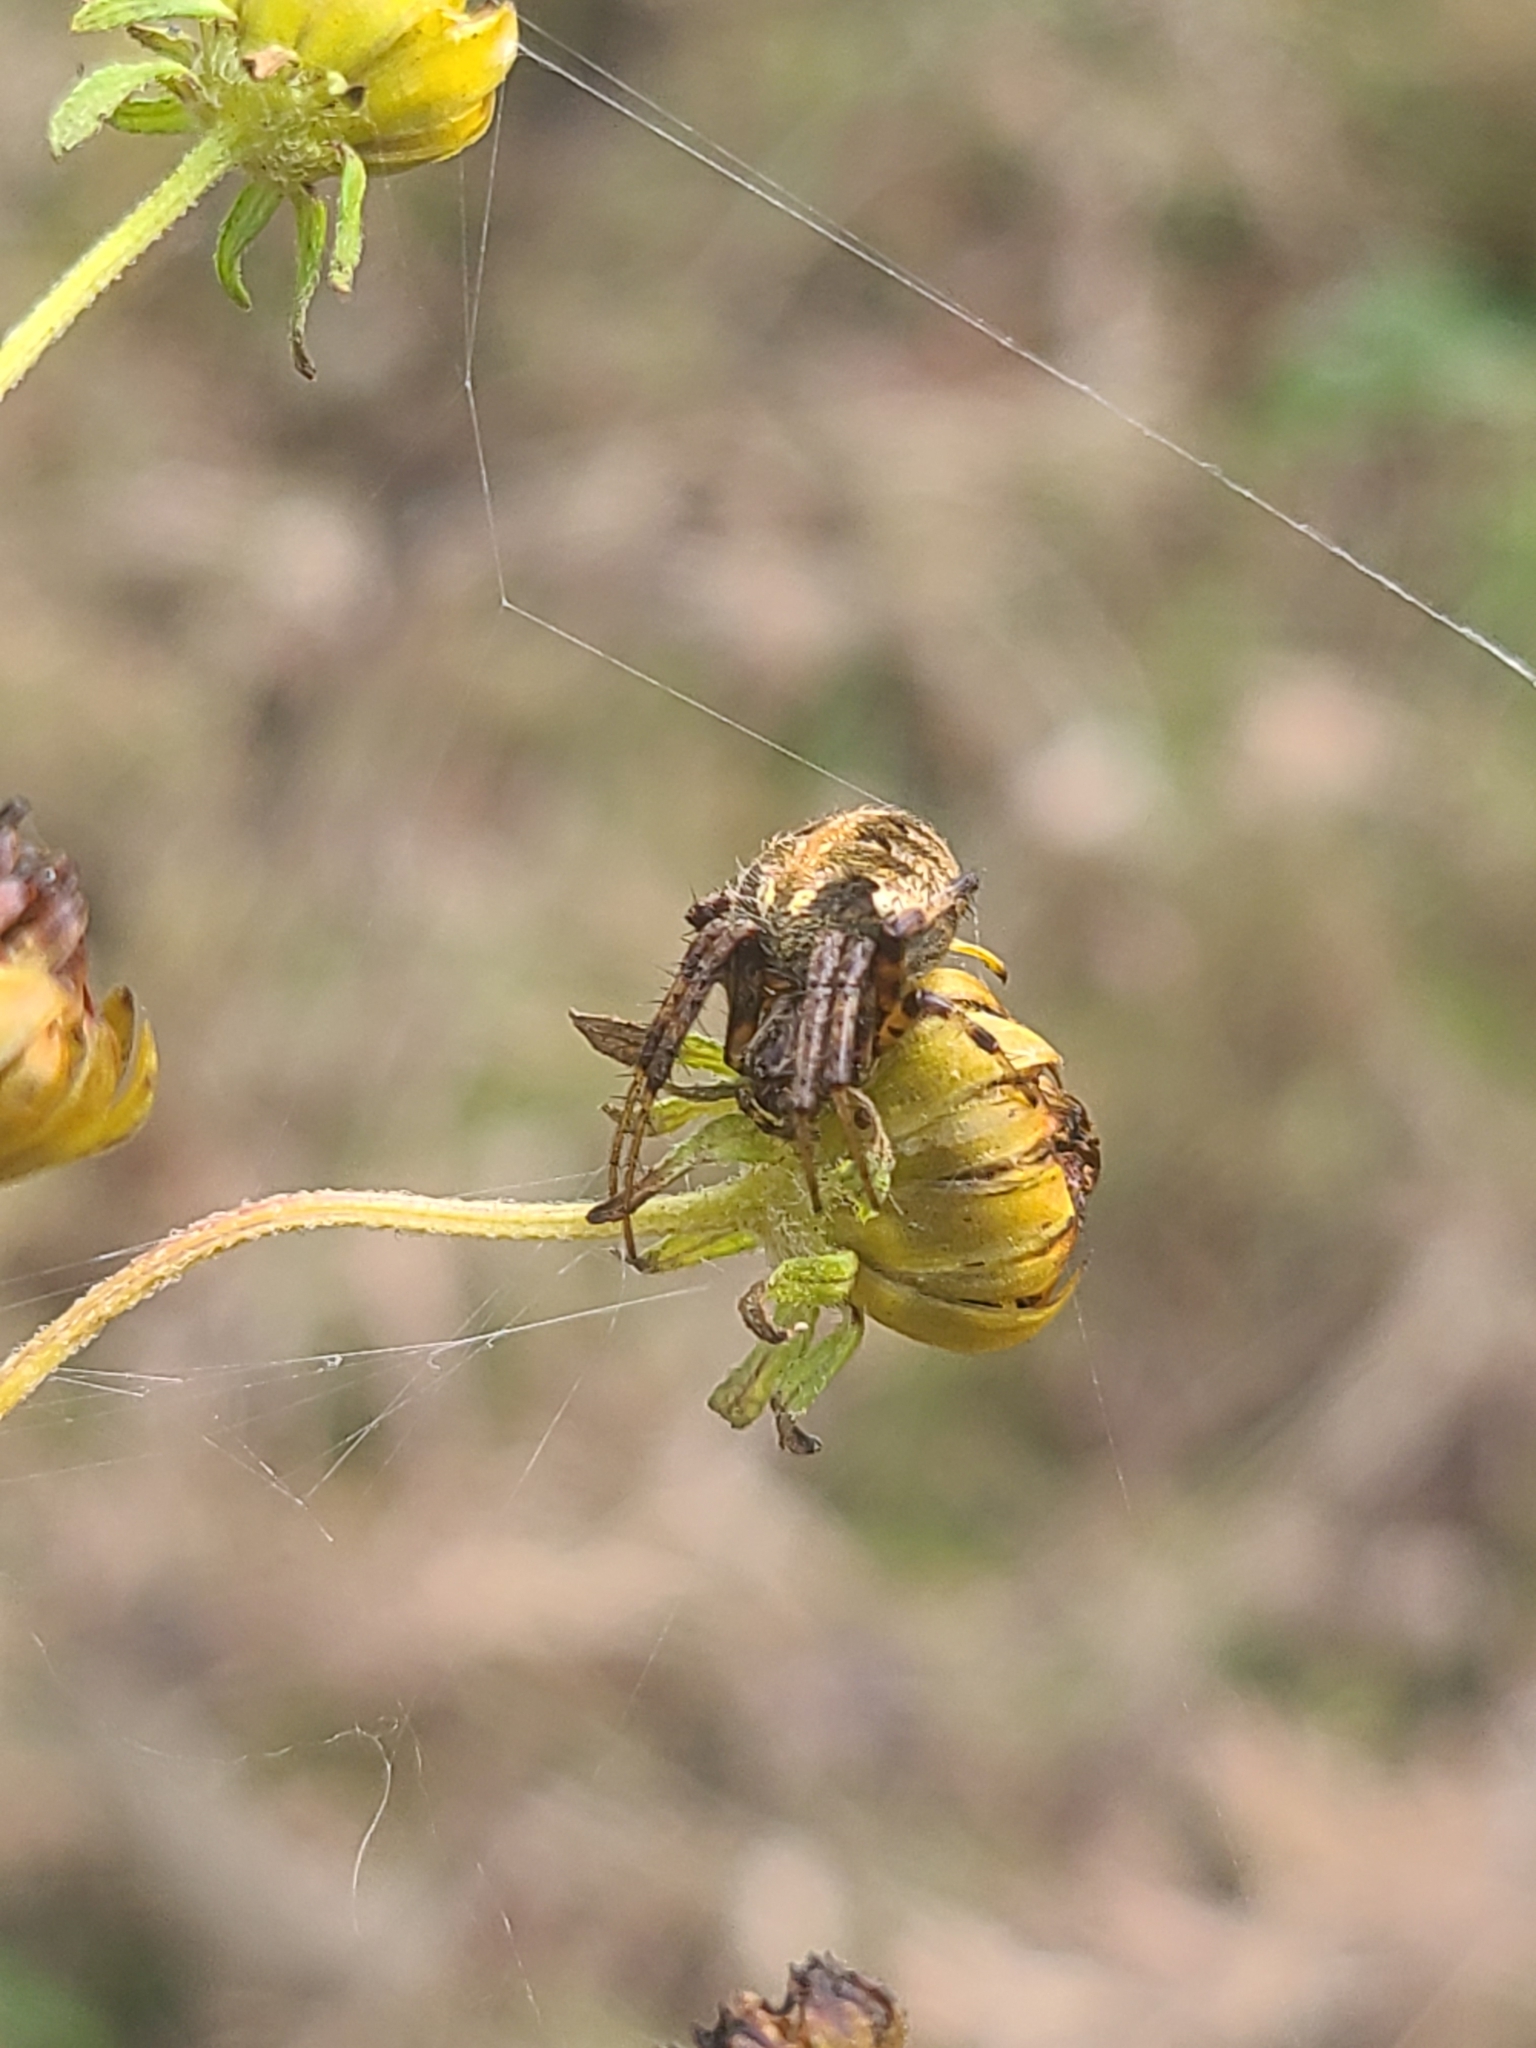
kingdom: Animalia
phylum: Arthropoda
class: Arachnida
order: Araneae
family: Araneidae
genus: Neoscona
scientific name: Neoscona arabesca
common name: Orb weavers
